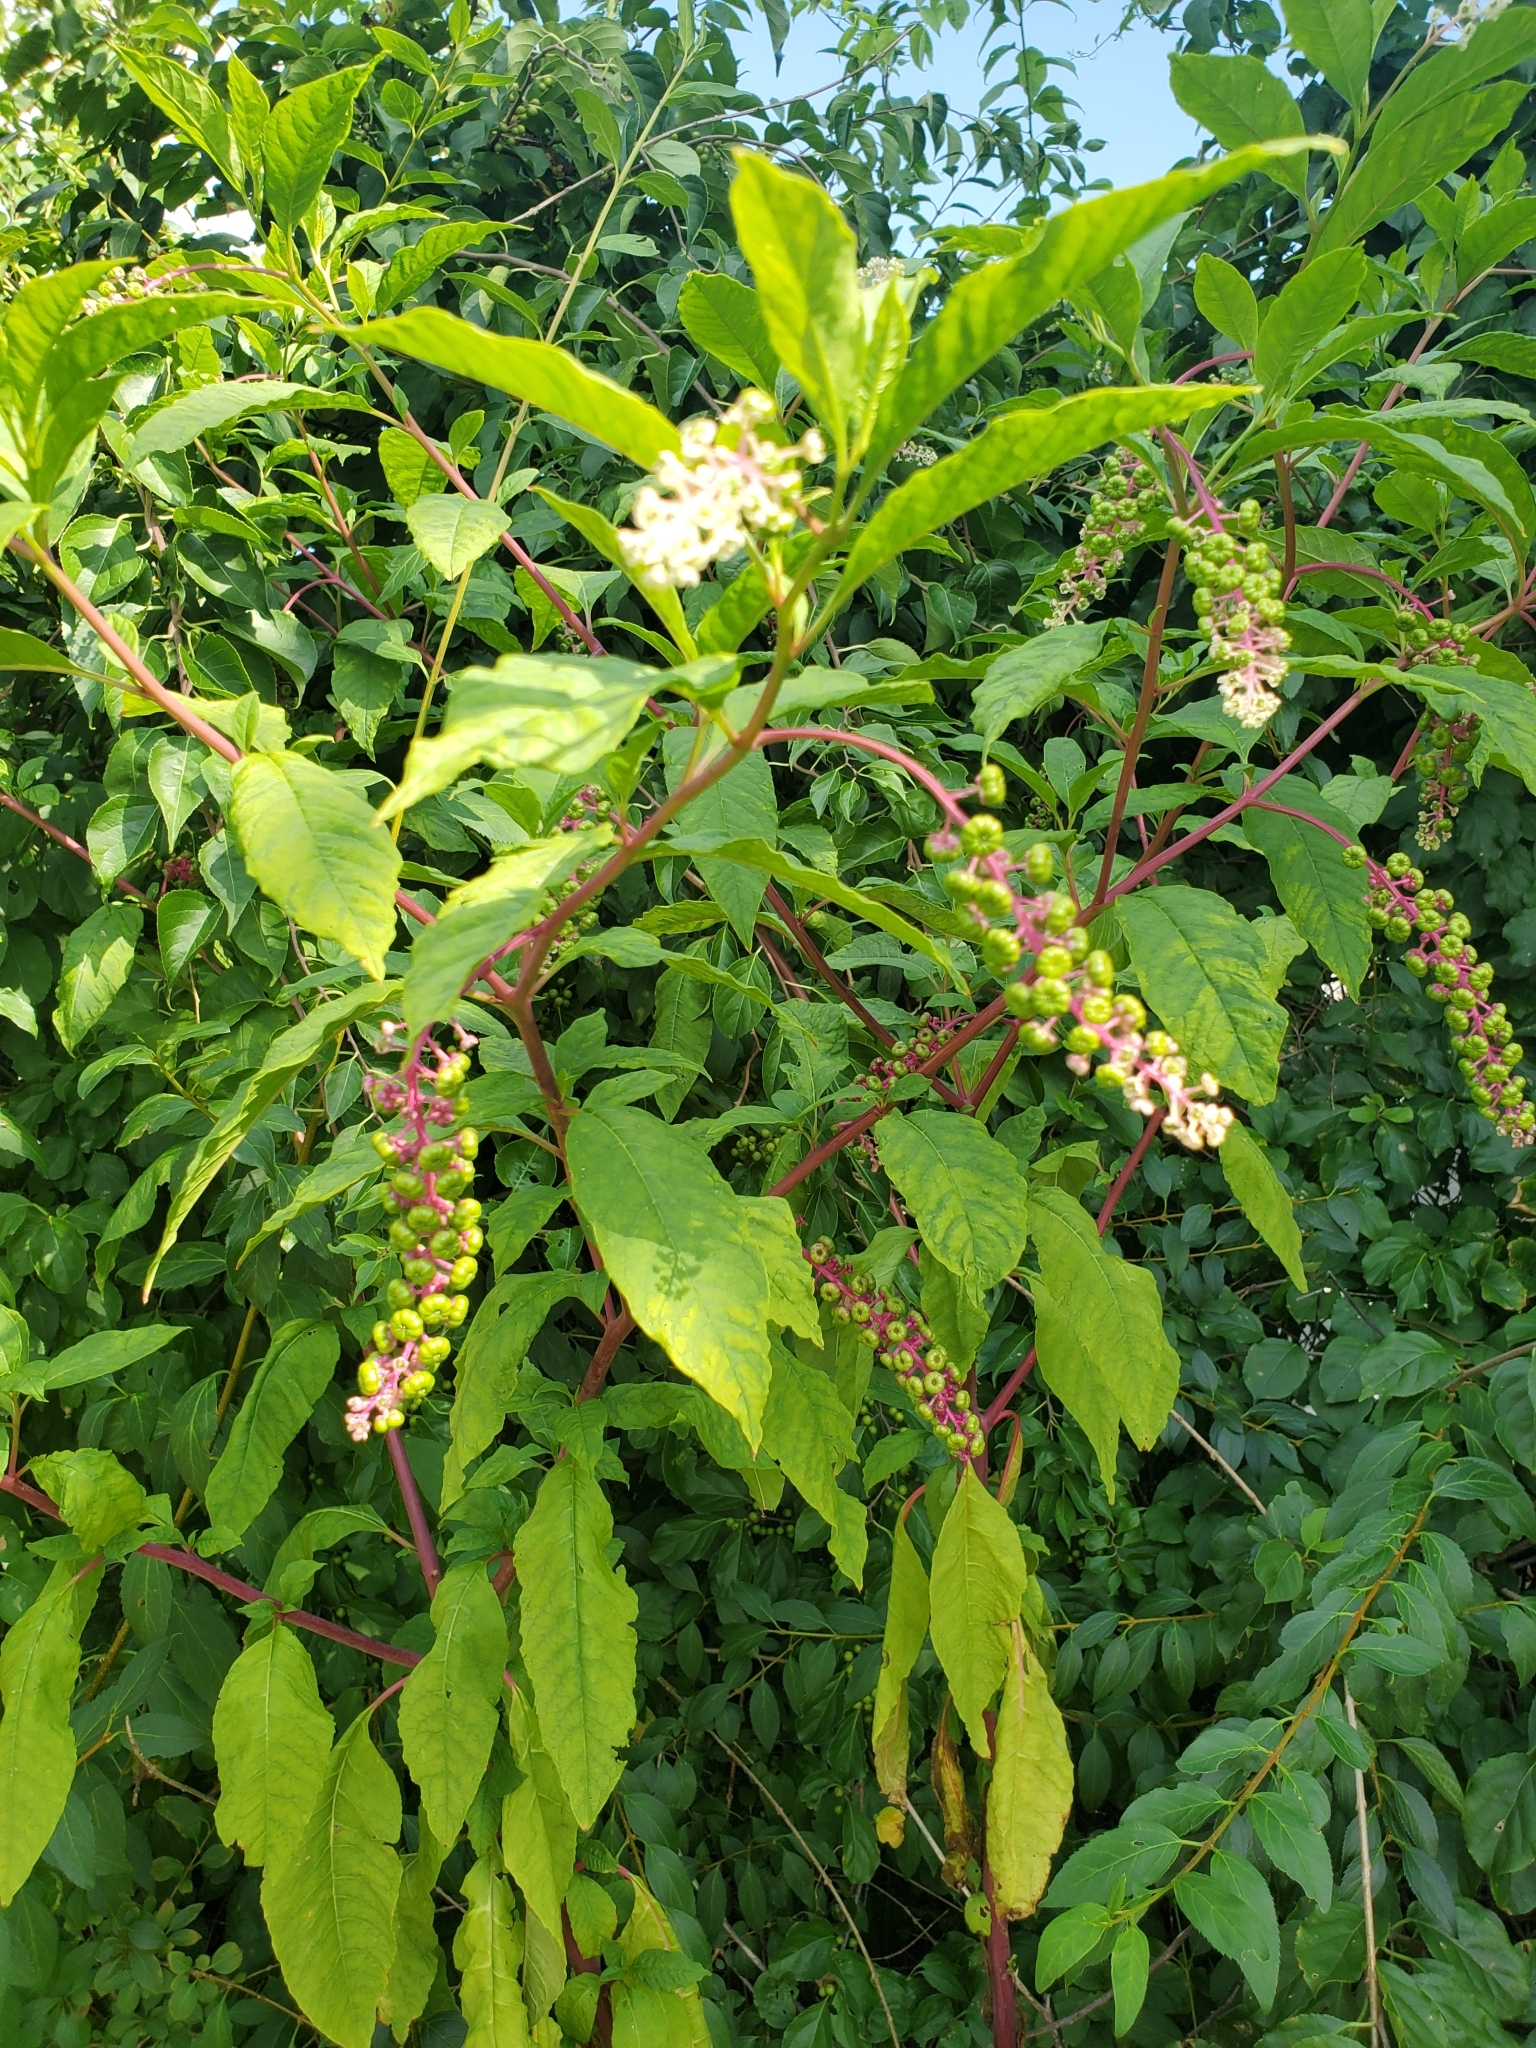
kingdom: Plantae
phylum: Tracheophyta
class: Magnoliopsida
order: Caryophyllales
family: Phytolaccaceae
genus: Phytolacca
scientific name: Phytolacca americana
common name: American pokeweed
